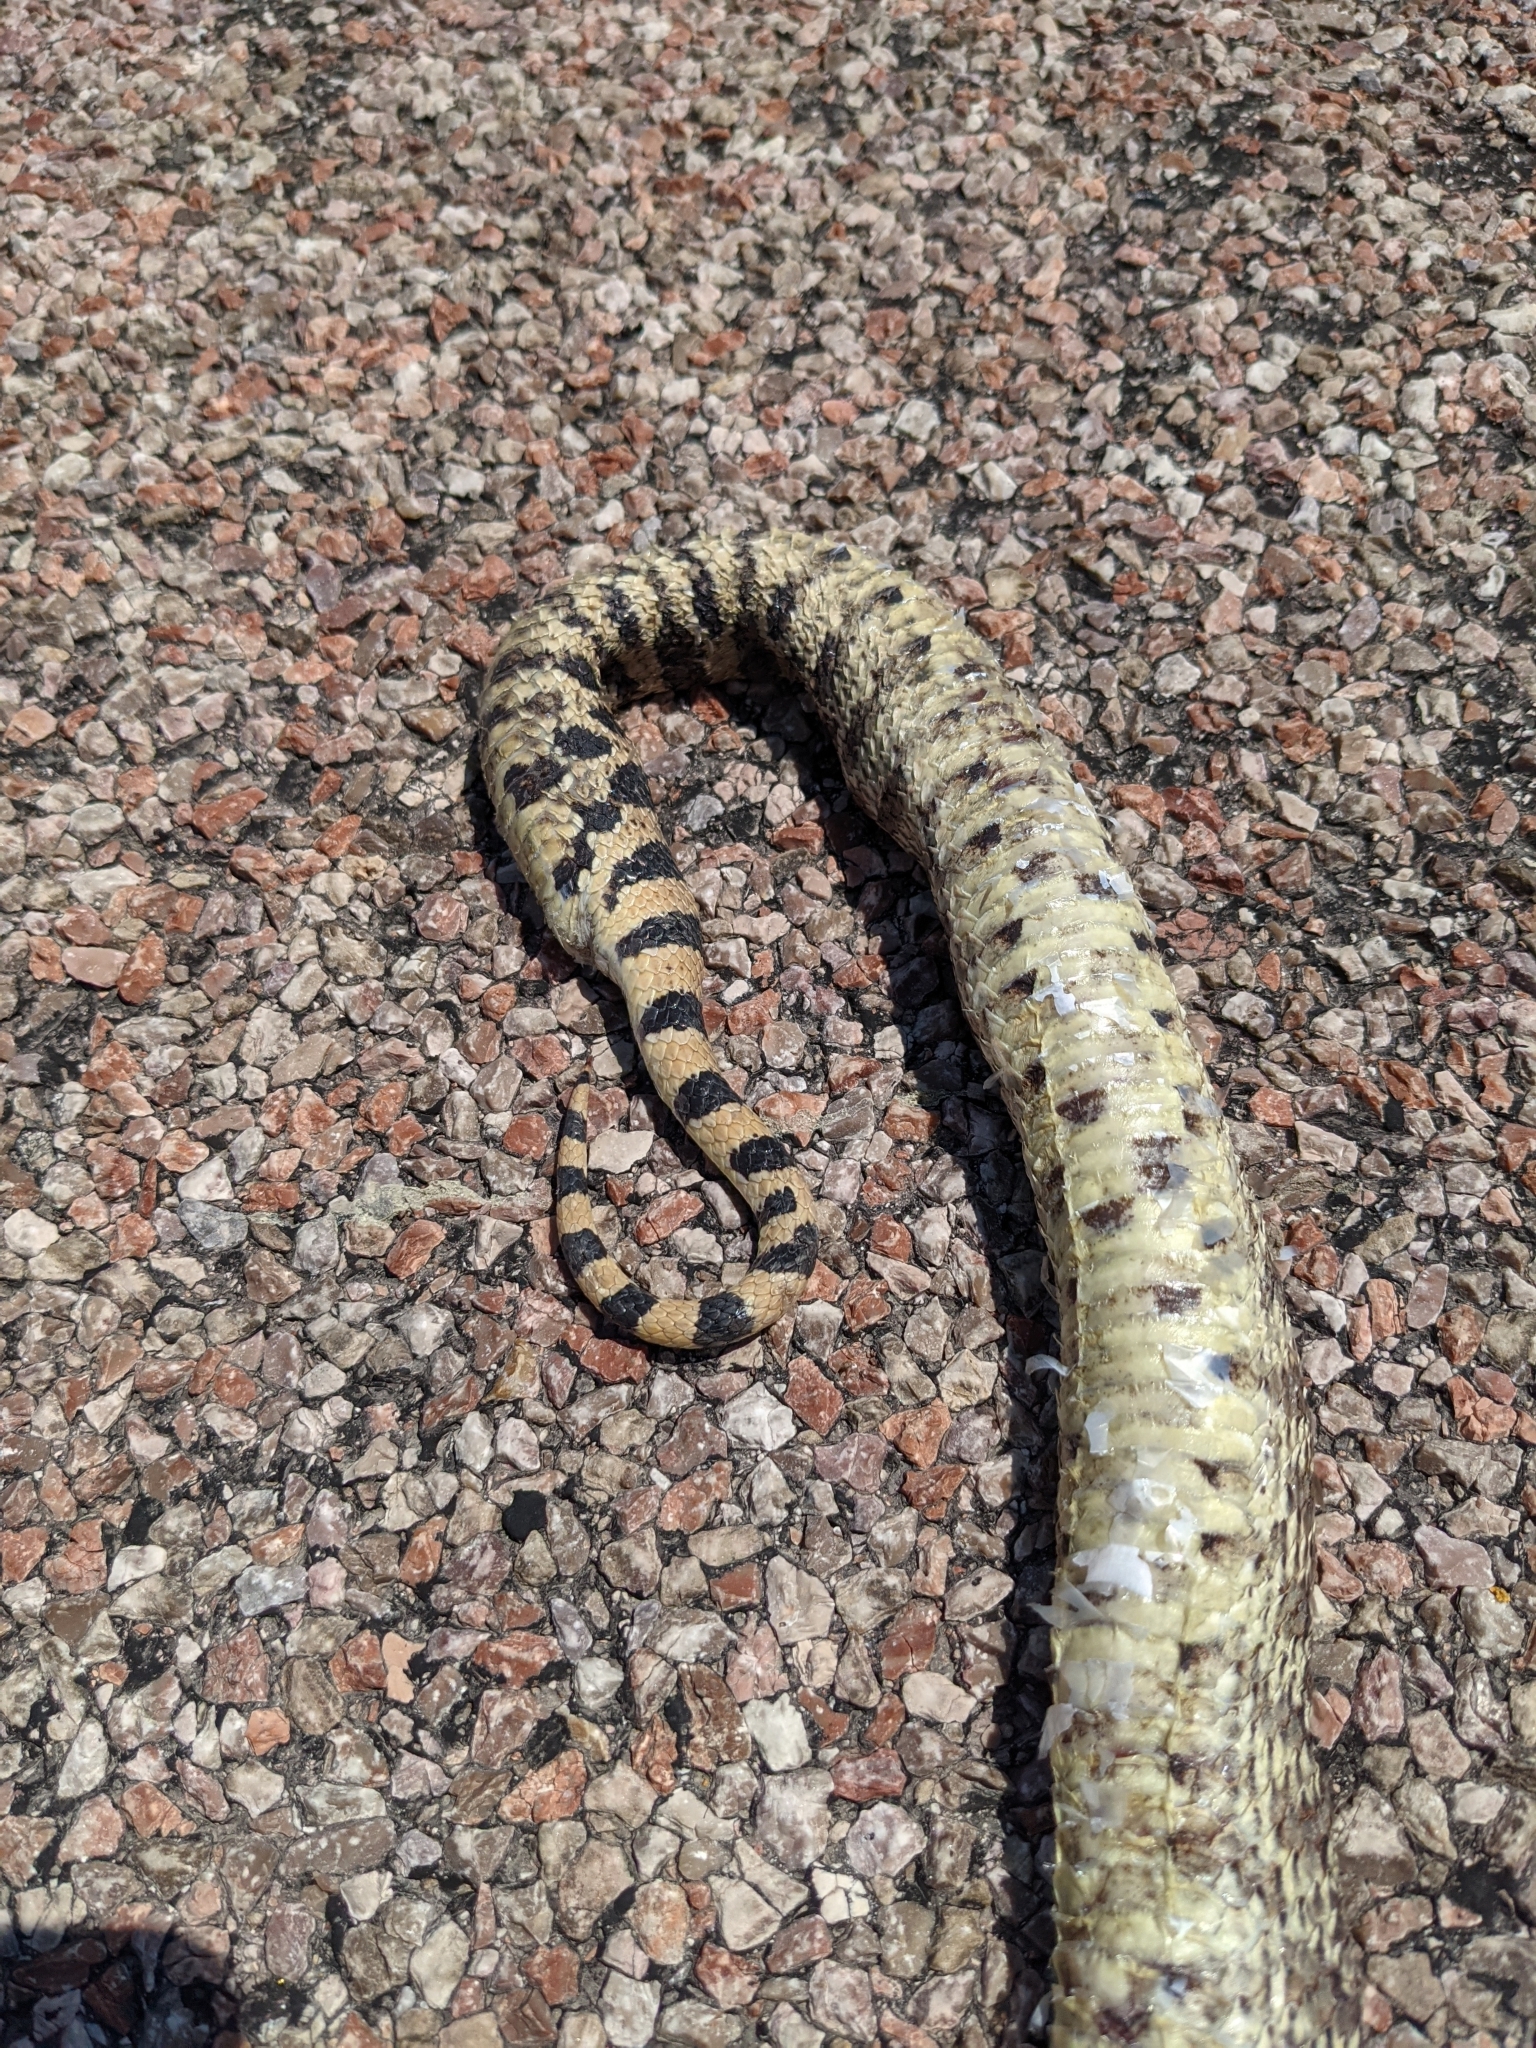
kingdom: Animalia
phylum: Chordata
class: Squamata
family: Colubridae
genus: Pituophis
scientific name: Pituophis catenifer
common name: Gopher snake
